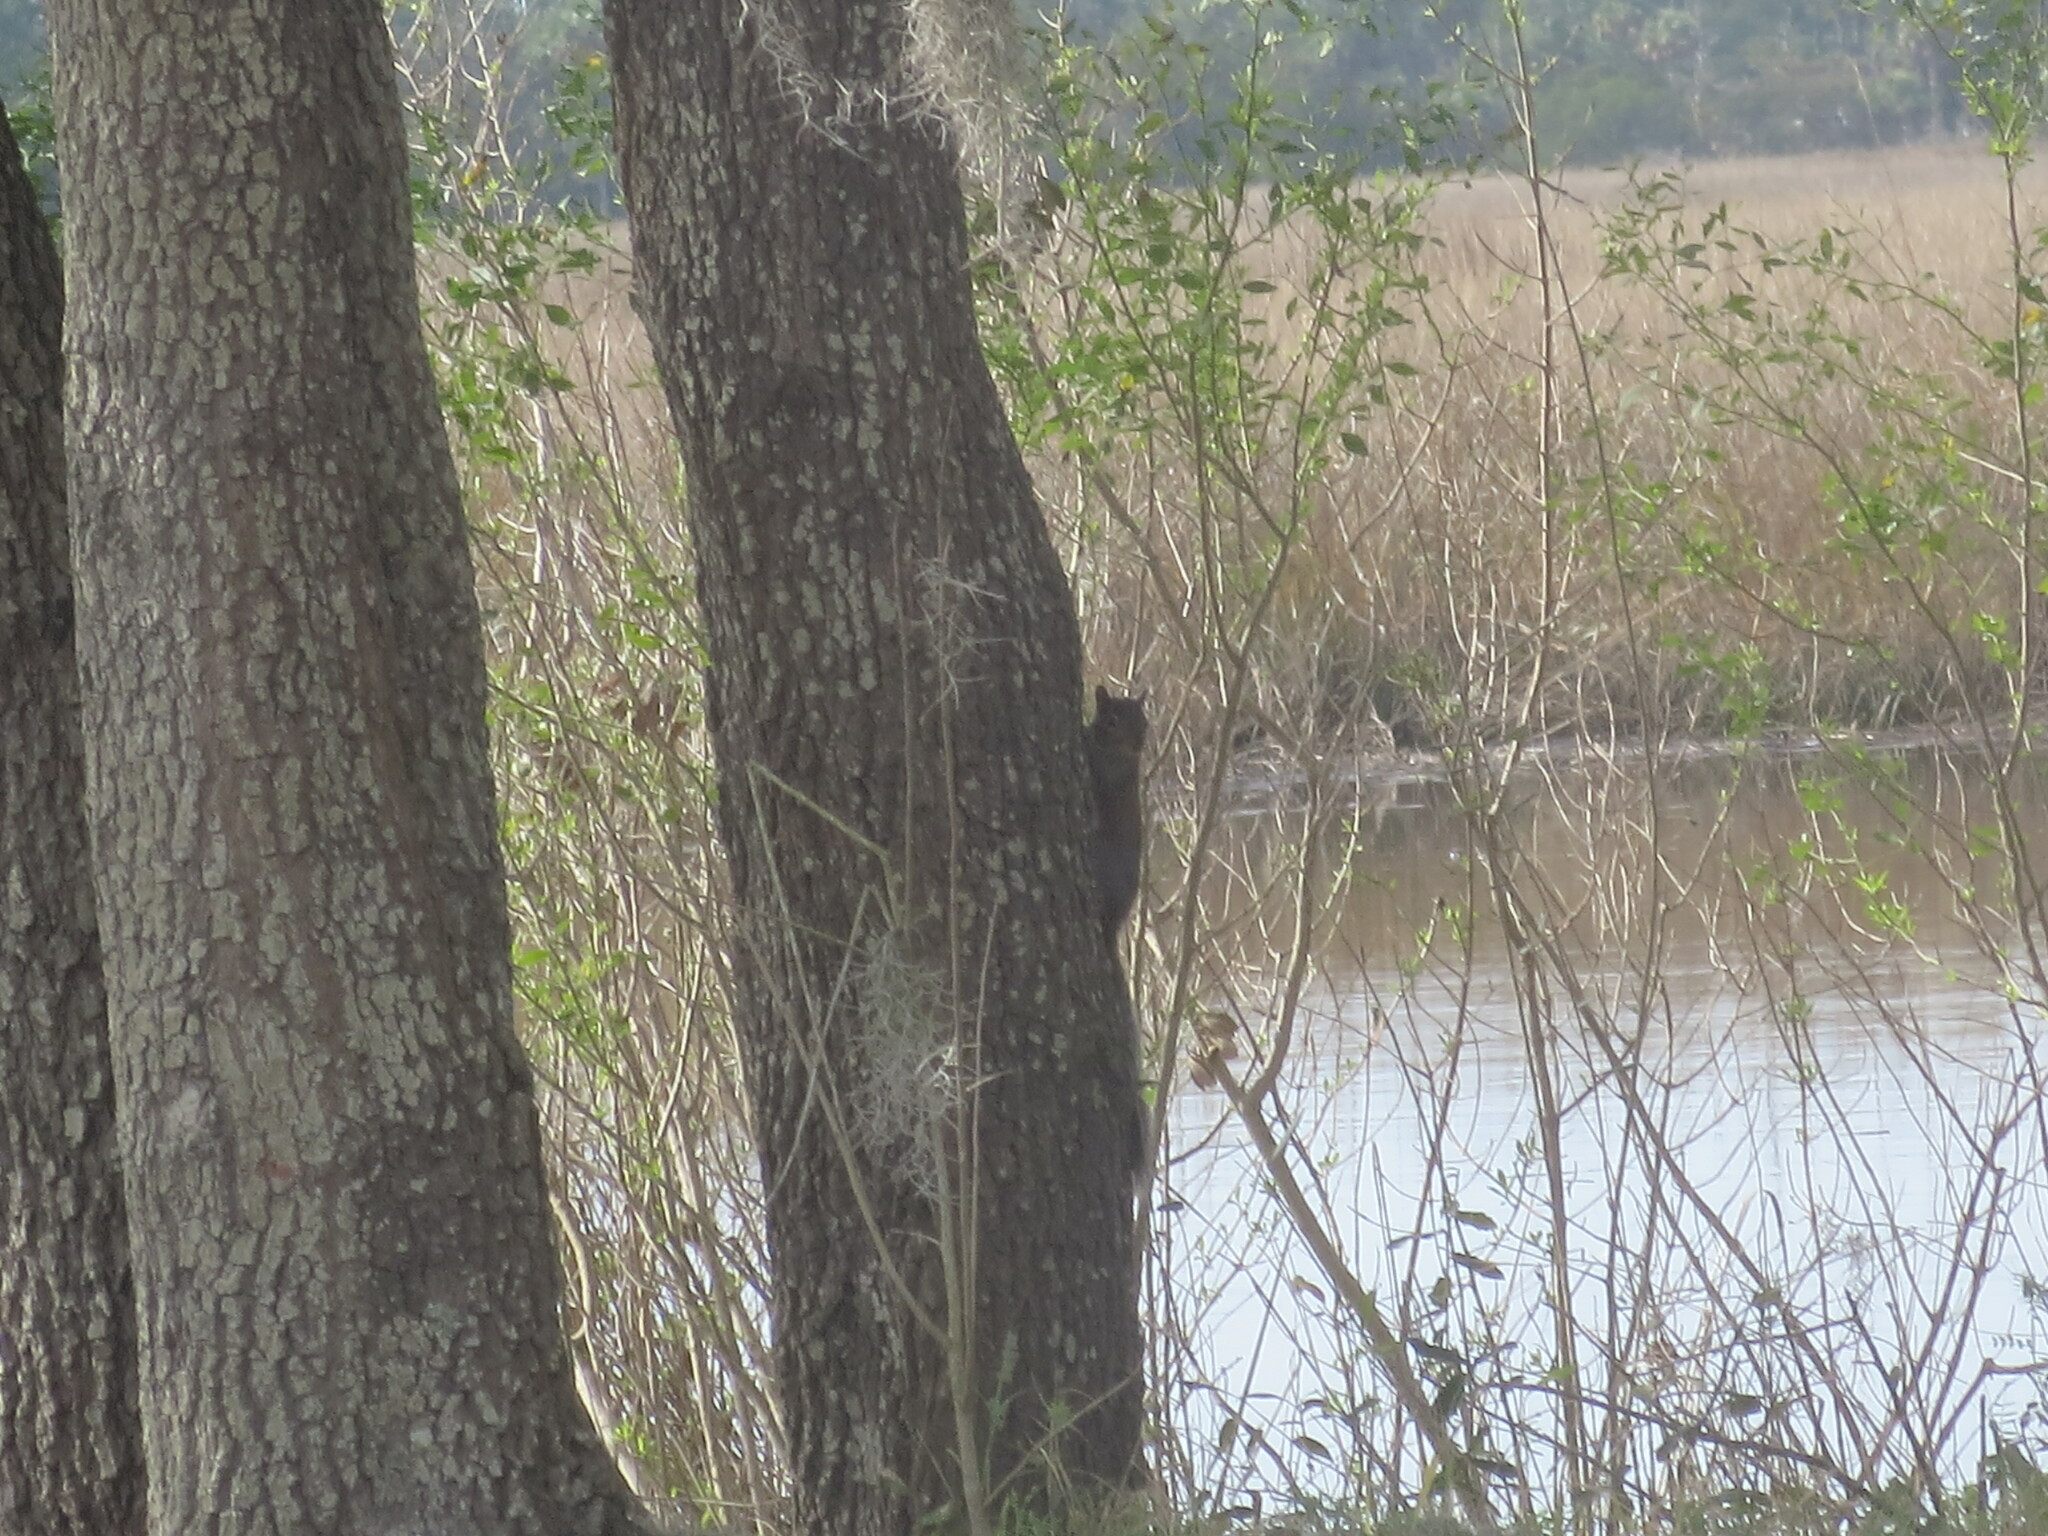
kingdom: Animalia
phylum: Chordata
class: Mammalia
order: Rodentia
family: Sciuridae
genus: Sciurus
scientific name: Sciurus carolinensis
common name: Eastern gray squirrel
